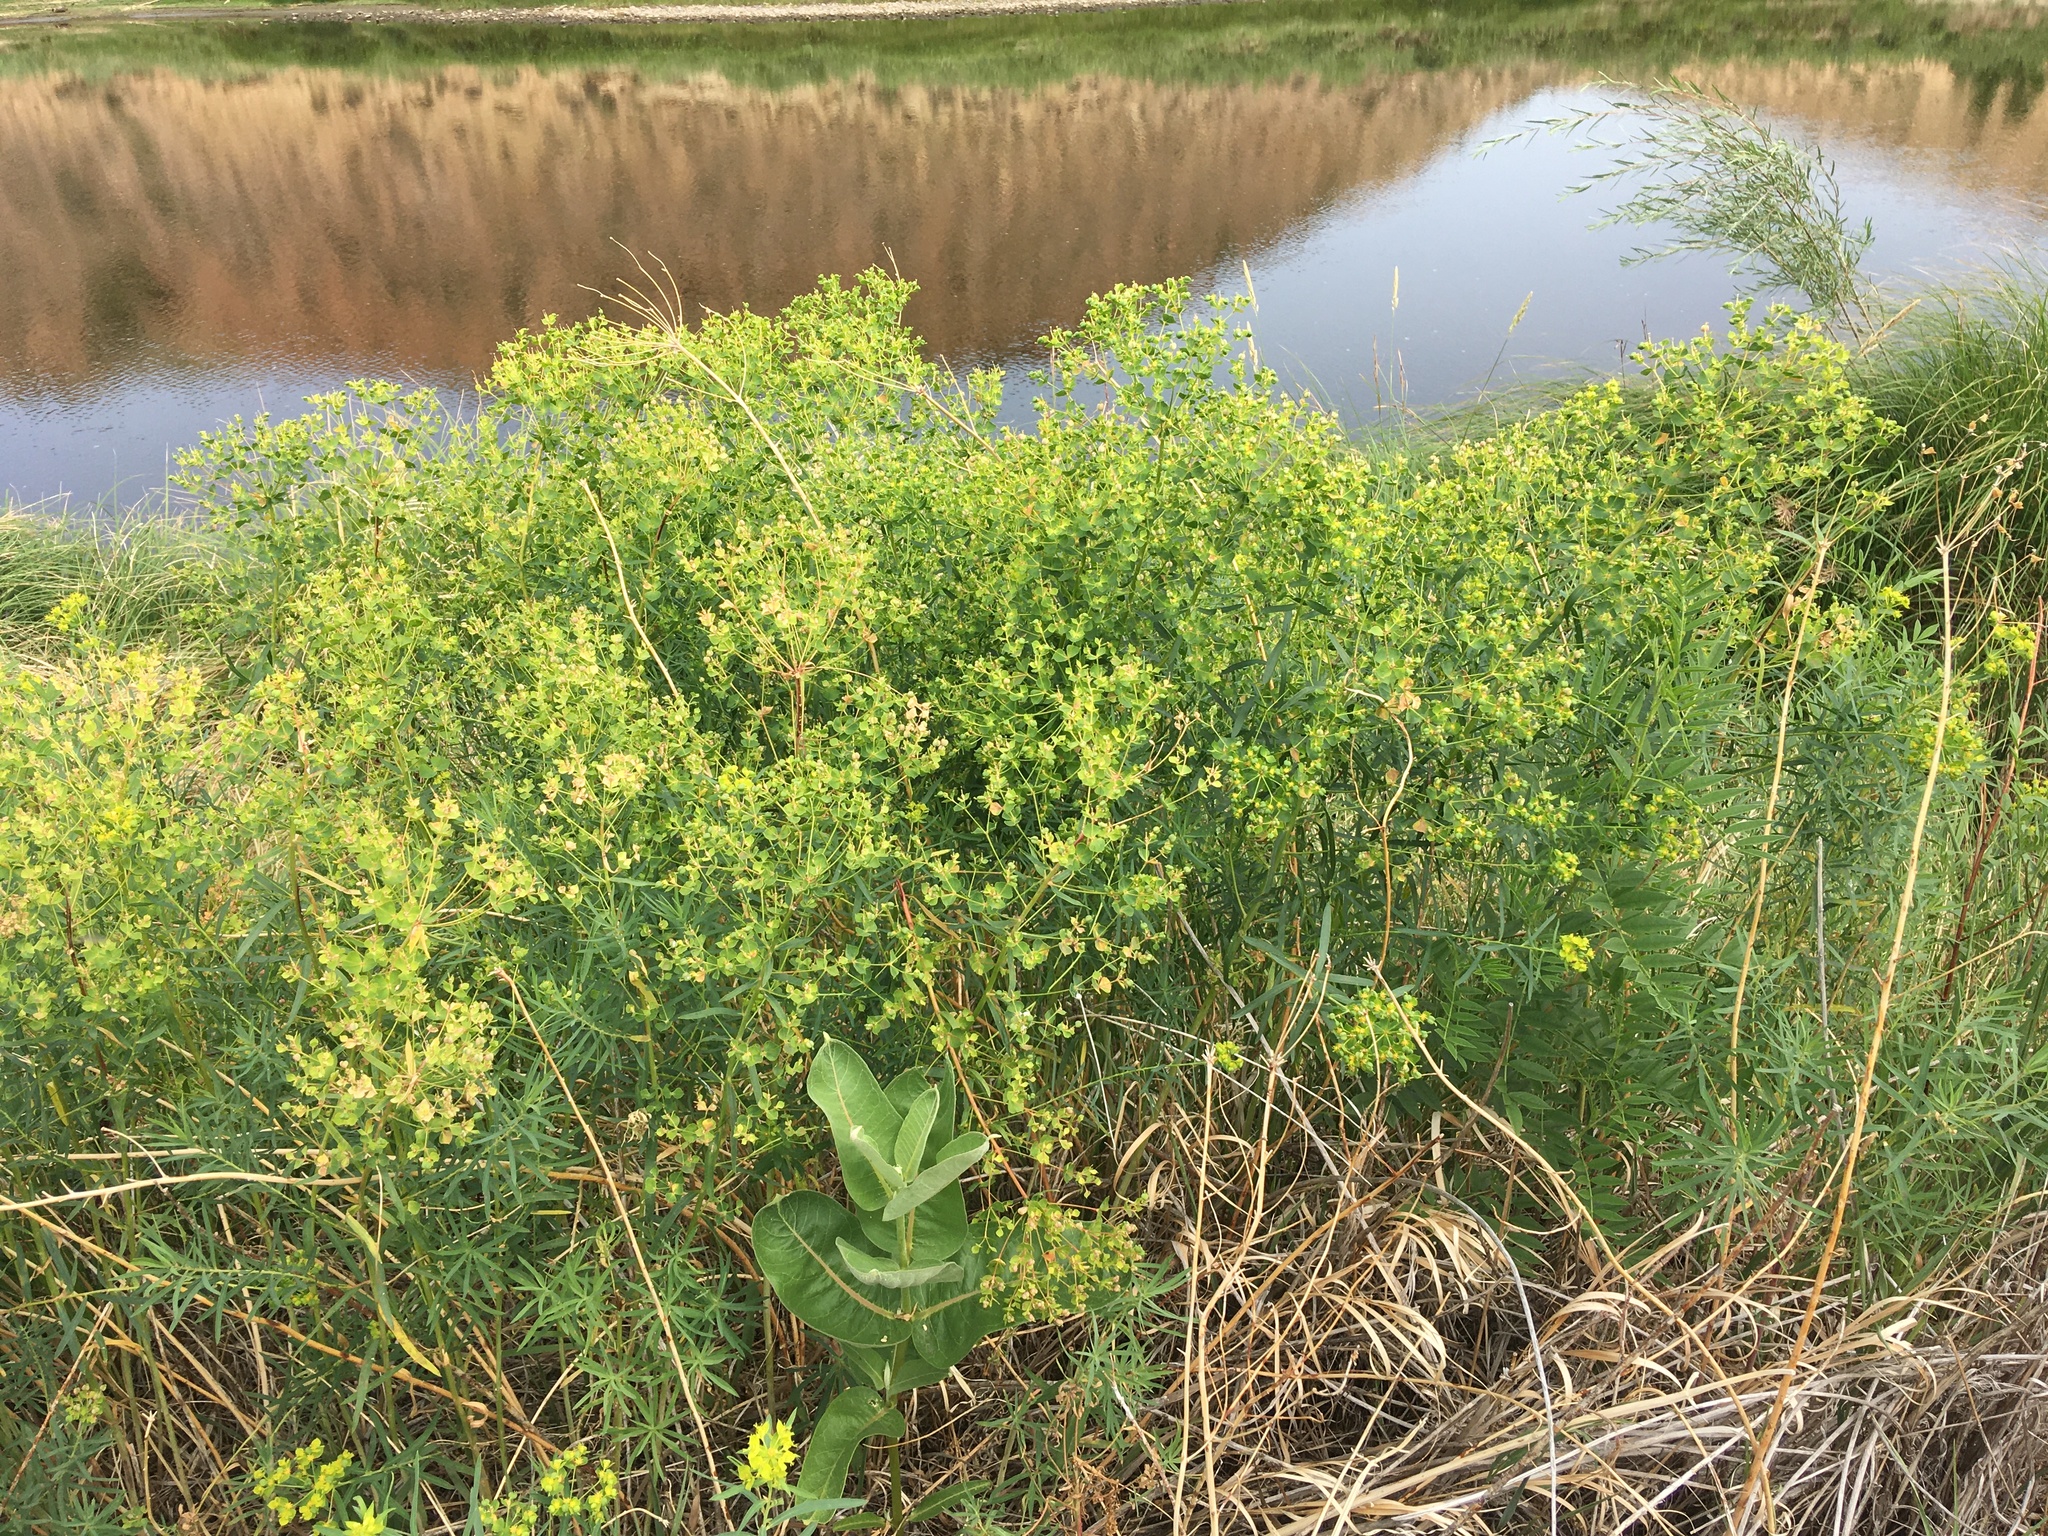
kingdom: Plantae
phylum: Tracheophyta
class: Magnoliopsida
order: Malpighiales
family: Euphorbiaceae
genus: Euphorbia
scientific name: Euphorbia virgata
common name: Leafy spurge
